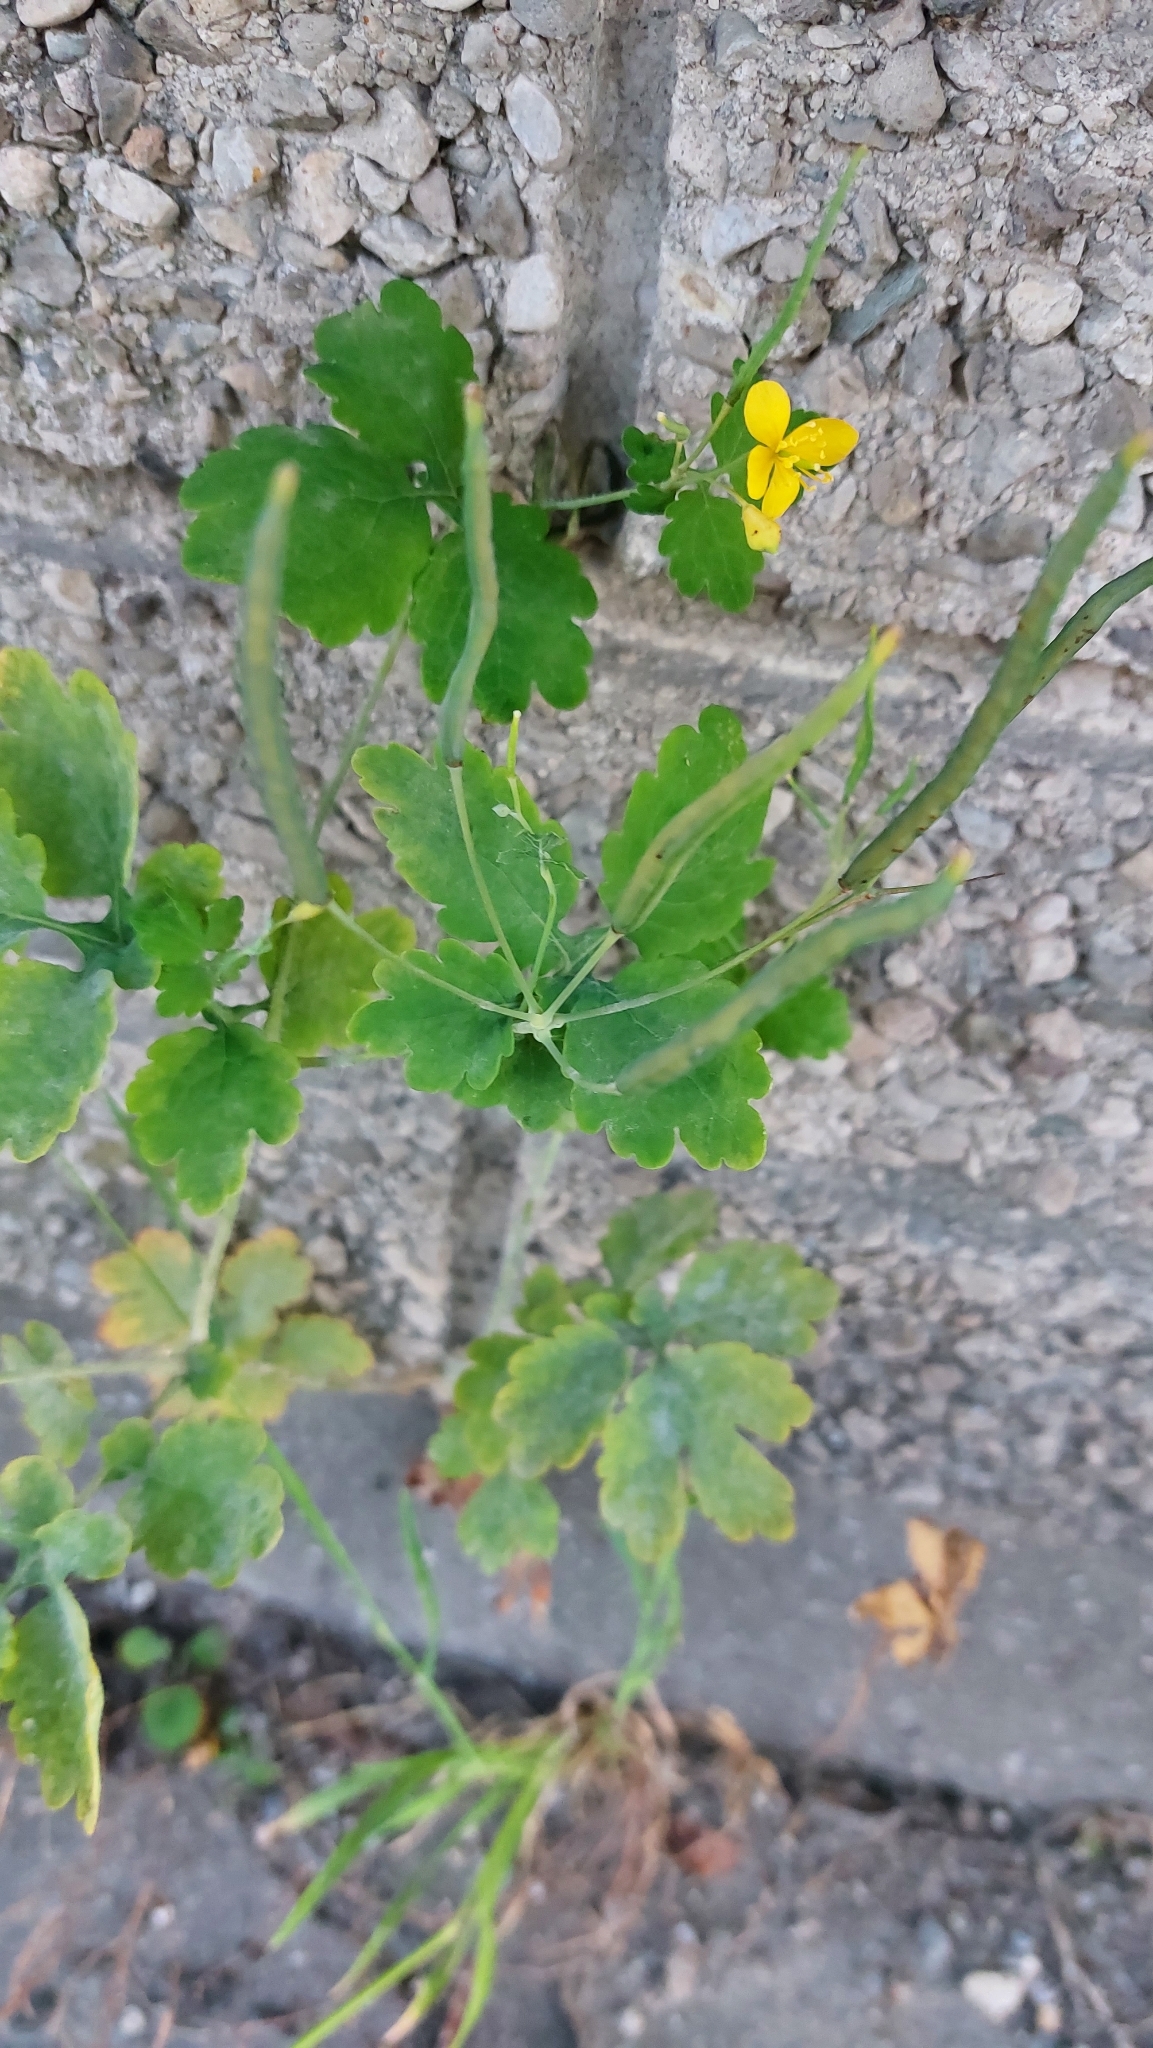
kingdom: Plantae
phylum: Tracheophyta
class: Magnoliopsida
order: Ranunculales
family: Papaveraceae
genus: Chelidonium
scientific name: Chelidonium majus
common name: Greater celandine
